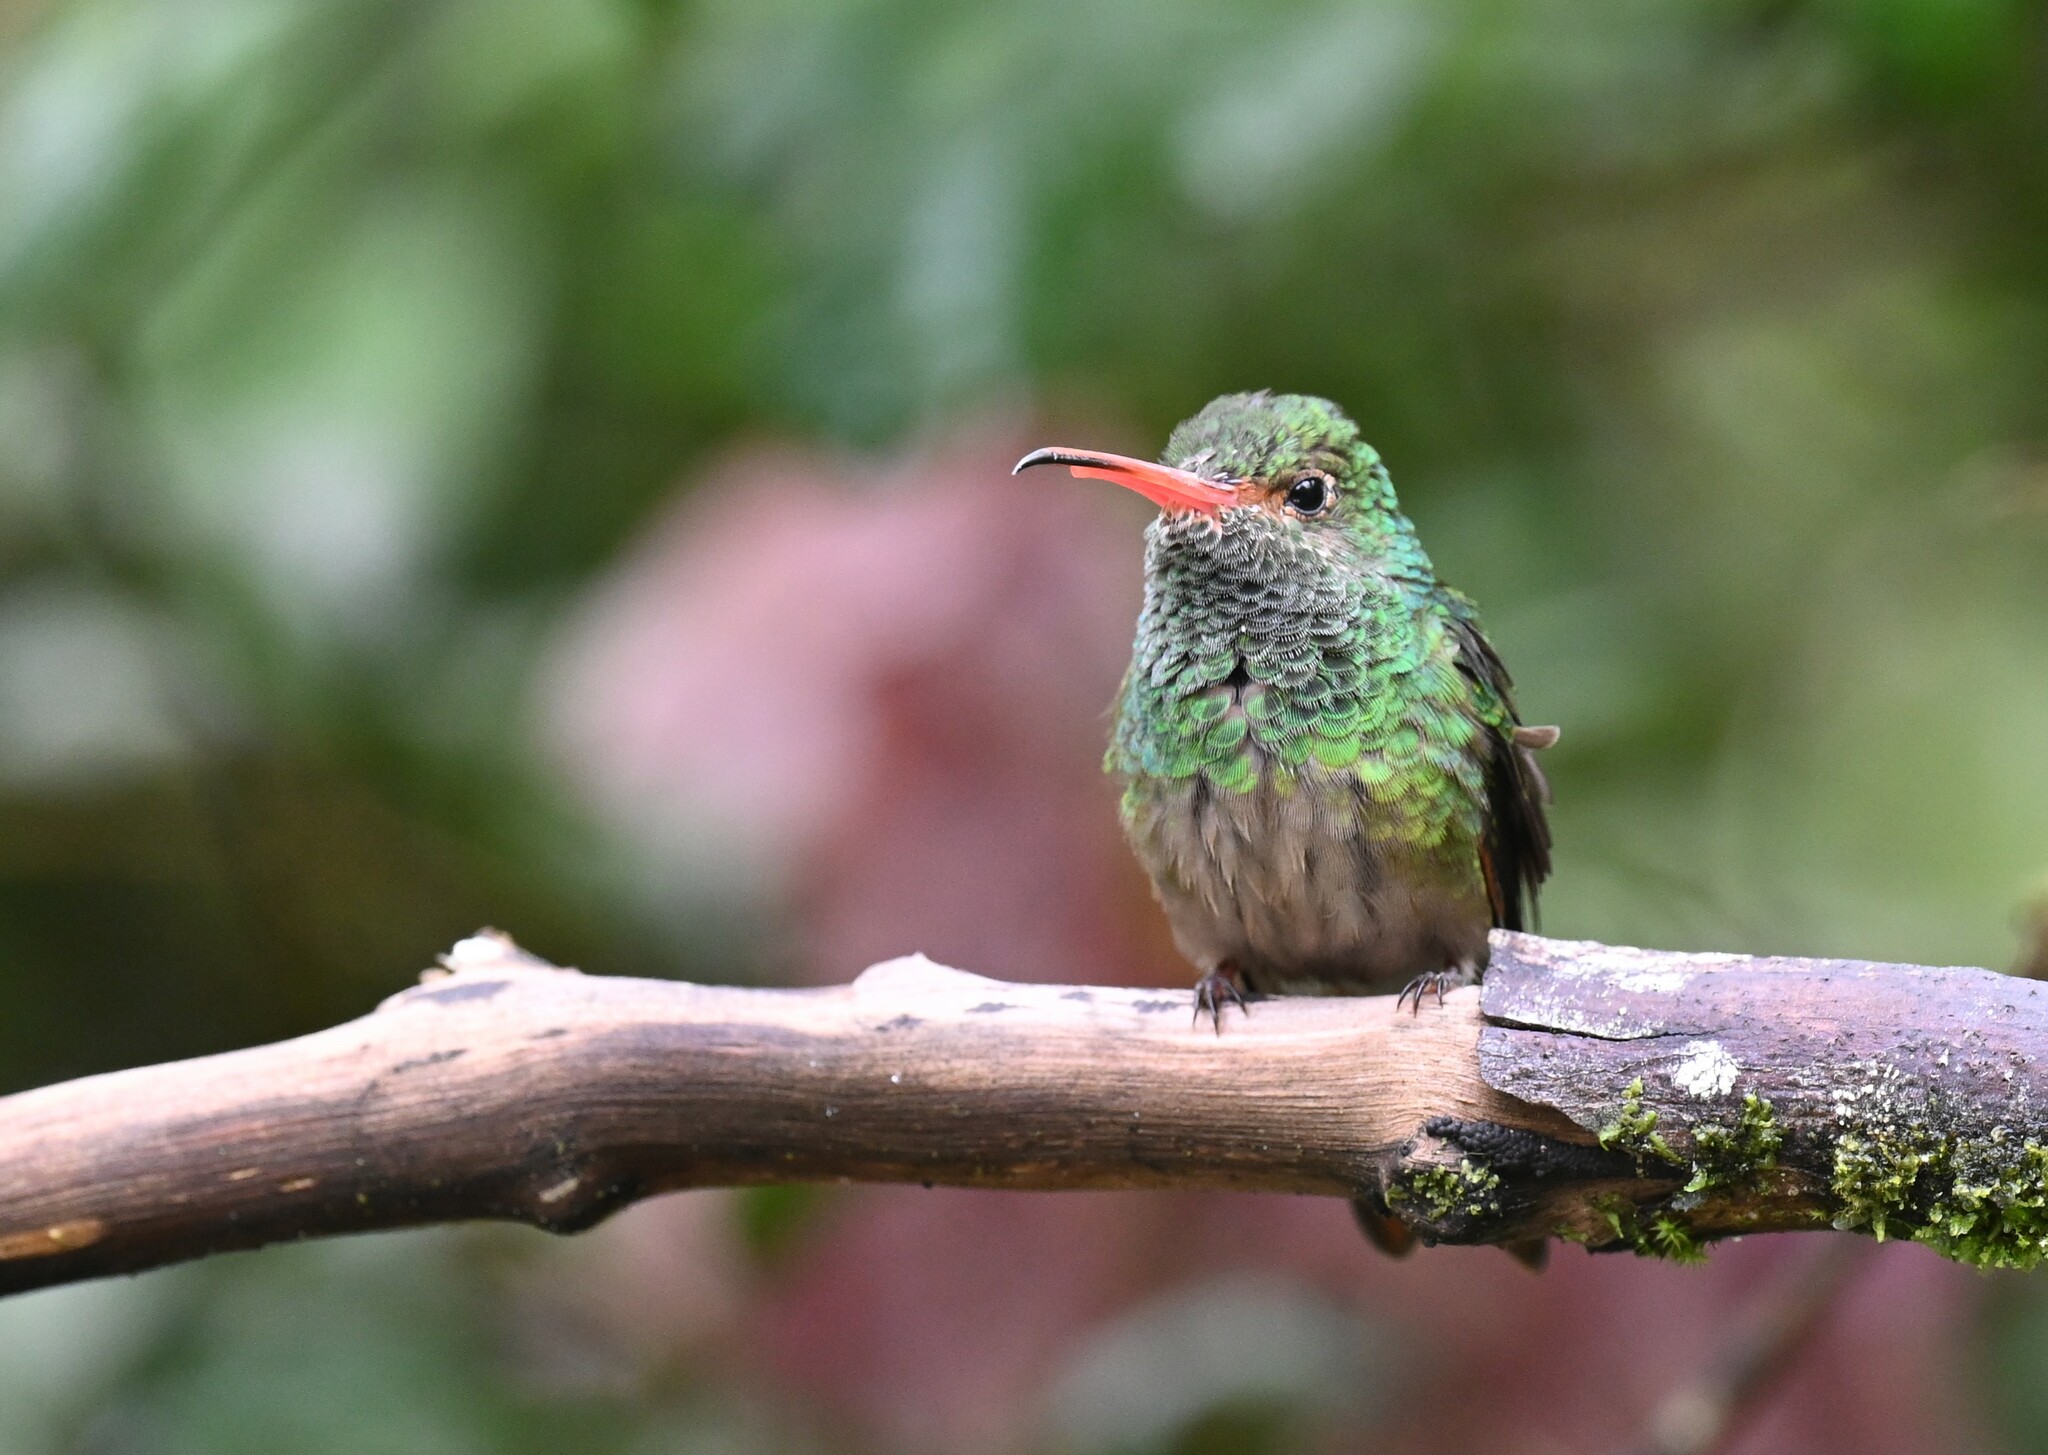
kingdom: Animalia
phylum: Chordata
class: Aves
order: Apodiformes
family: Trochilidae
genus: Amazilia
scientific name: Amazilia tzacatl
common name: Rufous-tailed hummingbird
